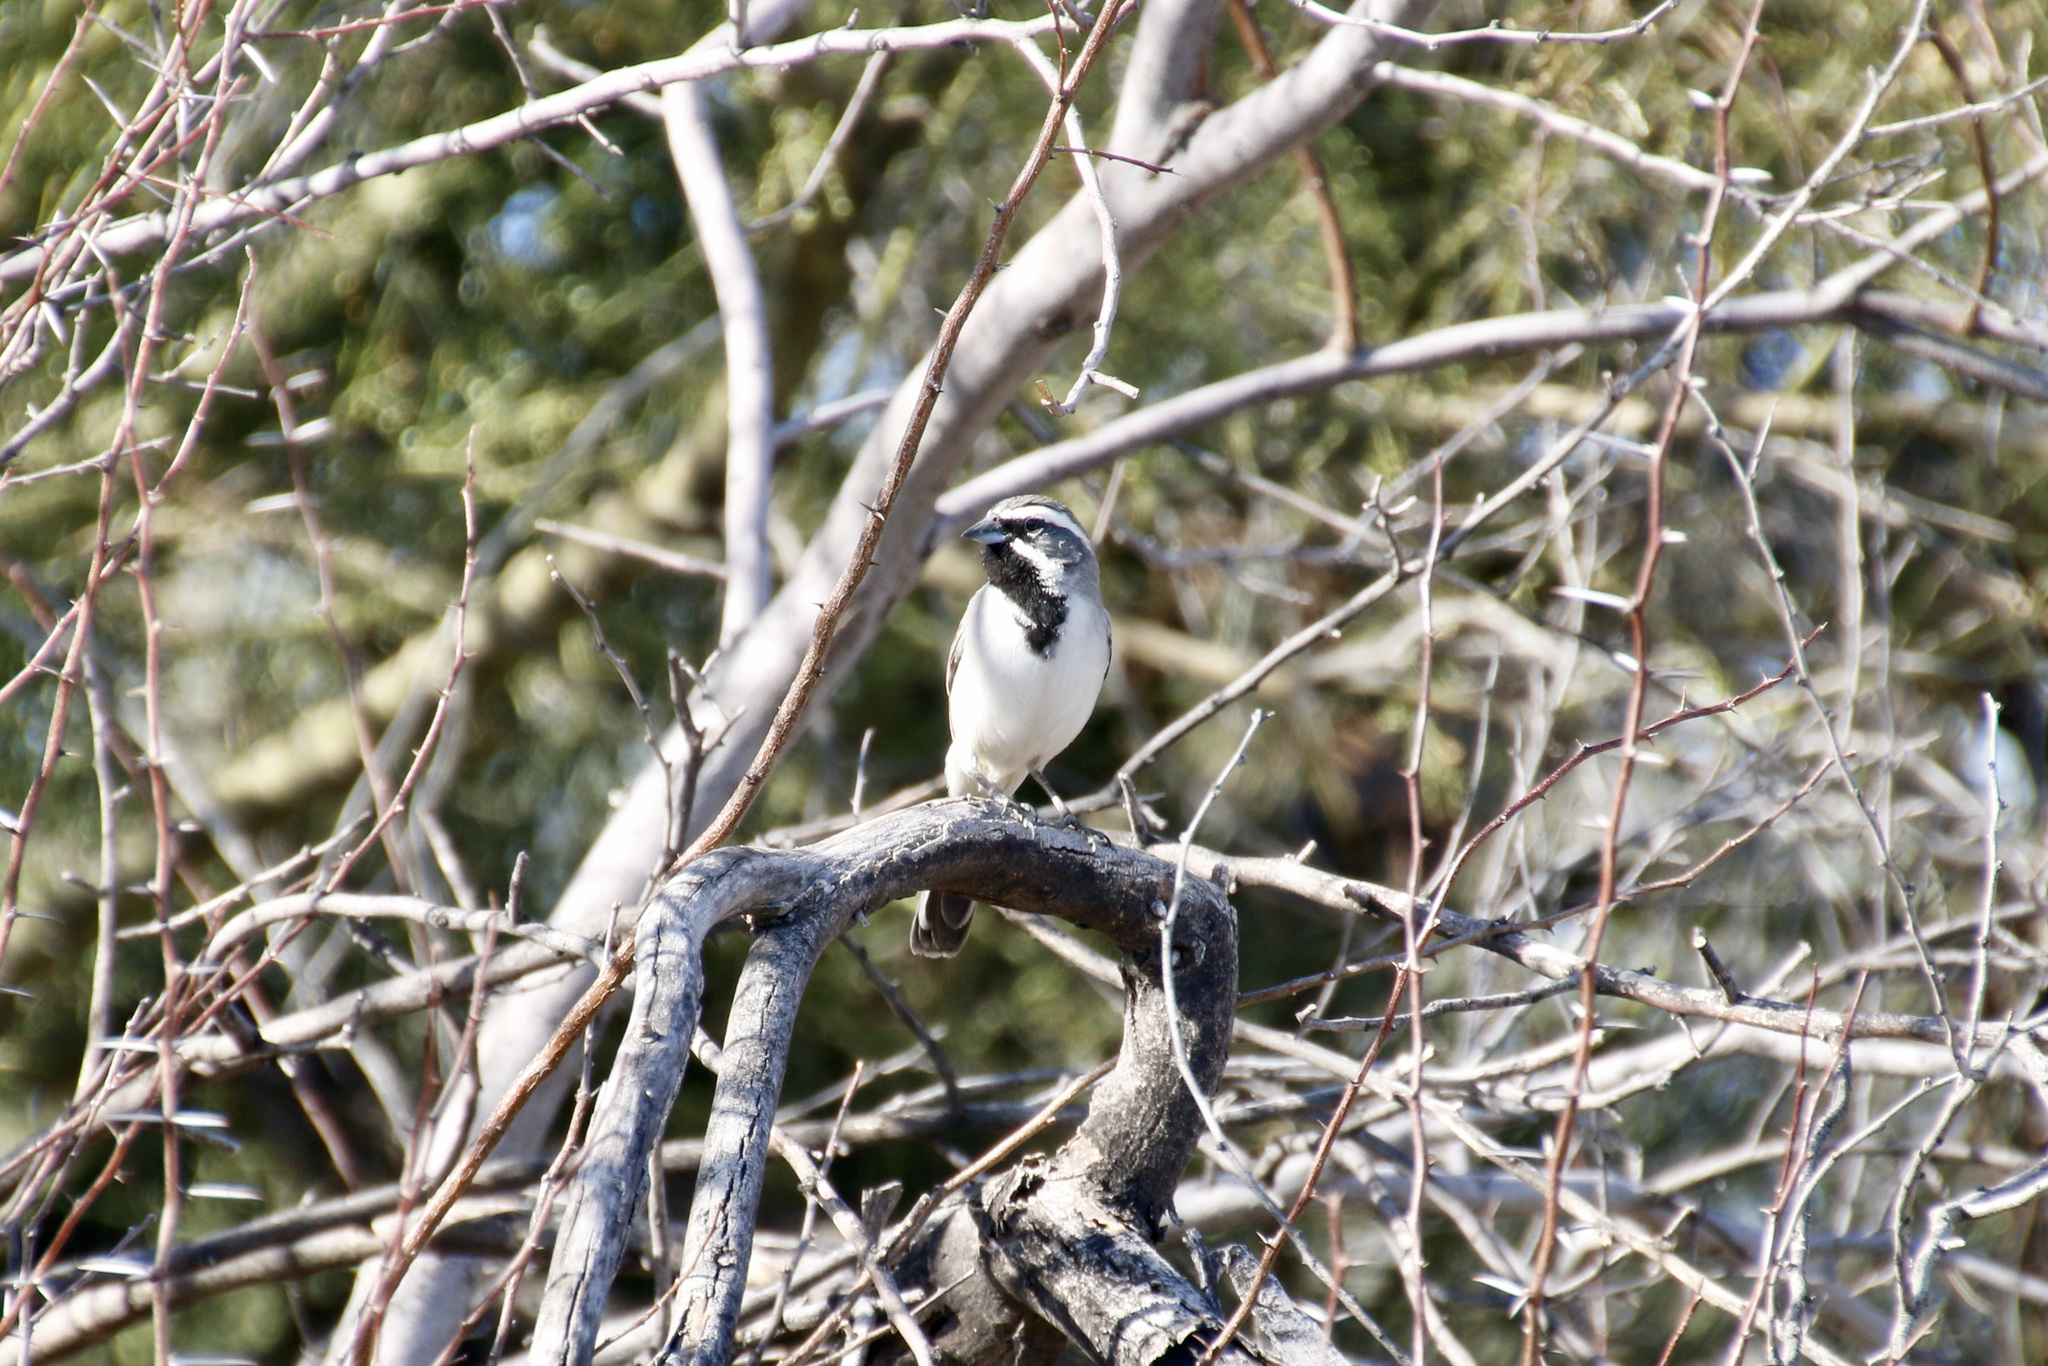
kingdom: Animalia
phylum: Chordata
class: Aves
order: Passeriformes
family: Passerellidae
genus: Amphispiza
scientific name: Amphispiza bilineata
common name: Black-throated sparrow
